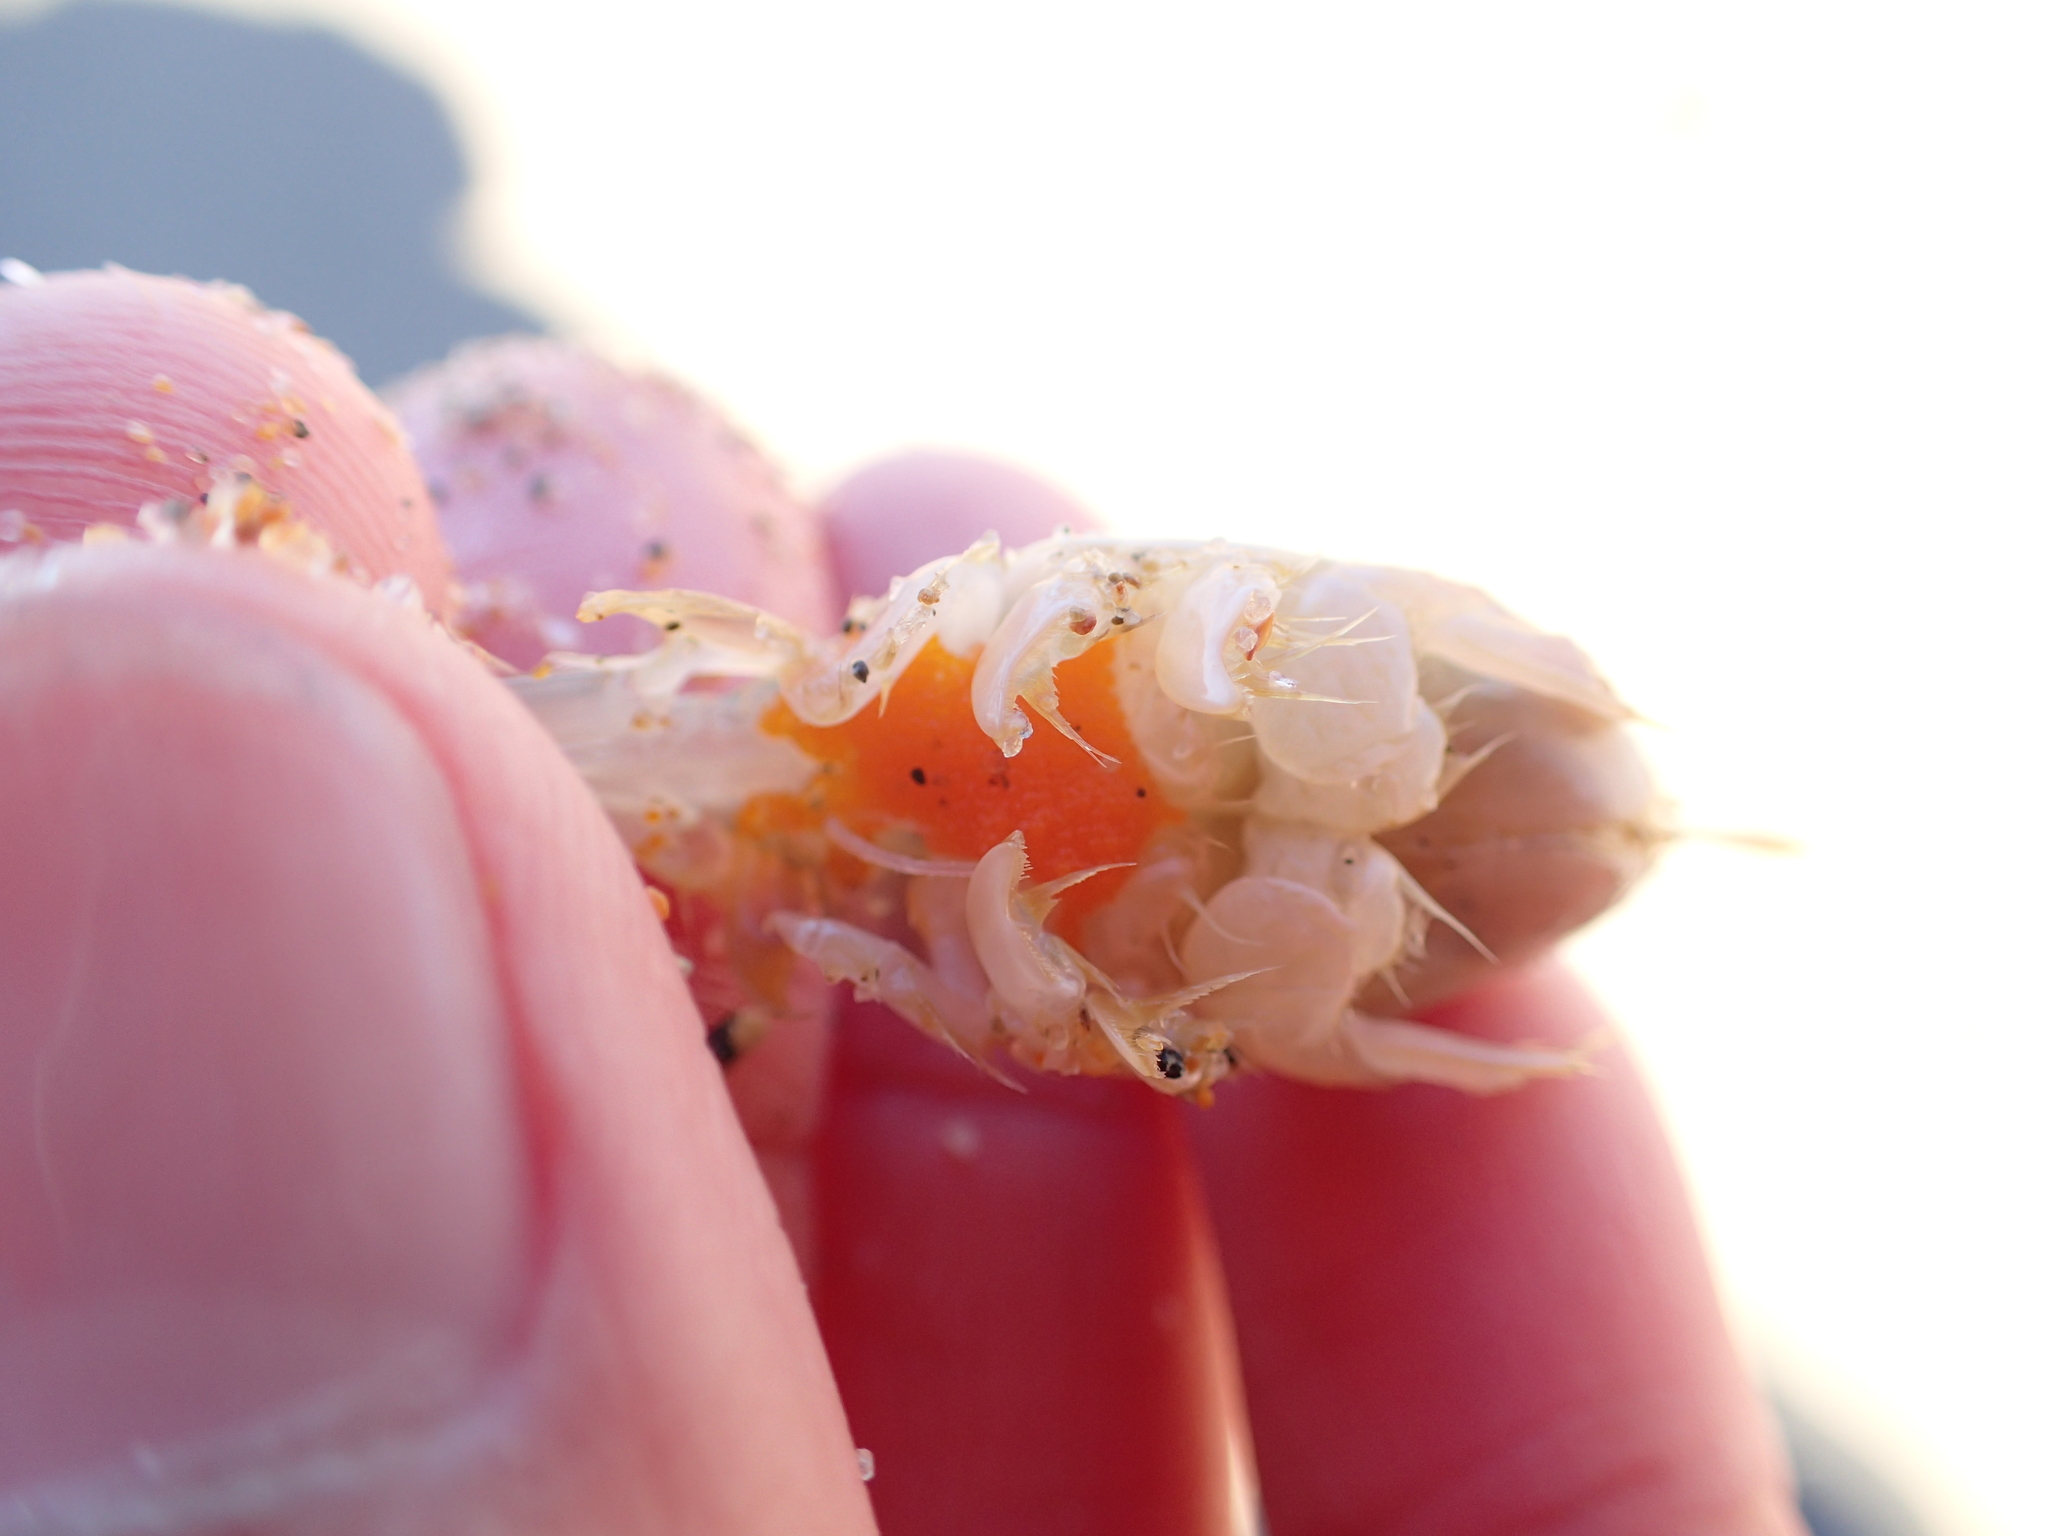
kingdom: Animalia
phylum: Arthropoda
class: Malacostraca
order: Decapoda
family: Hippidae
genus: Emerita
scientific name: Emerita analoga
